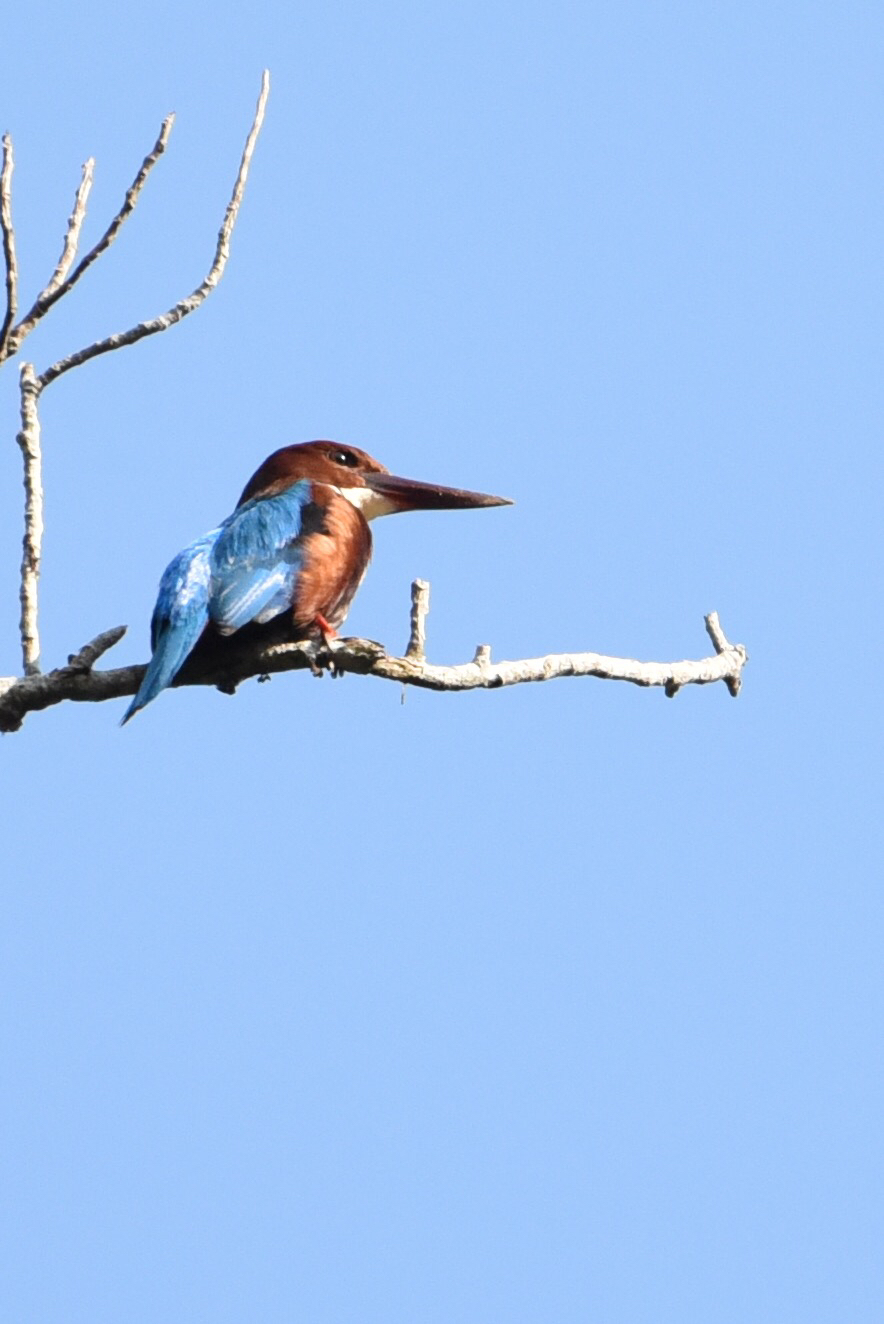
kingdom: Animalia
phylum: Chordata
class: Aves
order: Coraciiformes
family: Alcedinidae
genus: Halcyon
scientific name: Halcyon smyrnensis
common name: White-throated kingfisher
